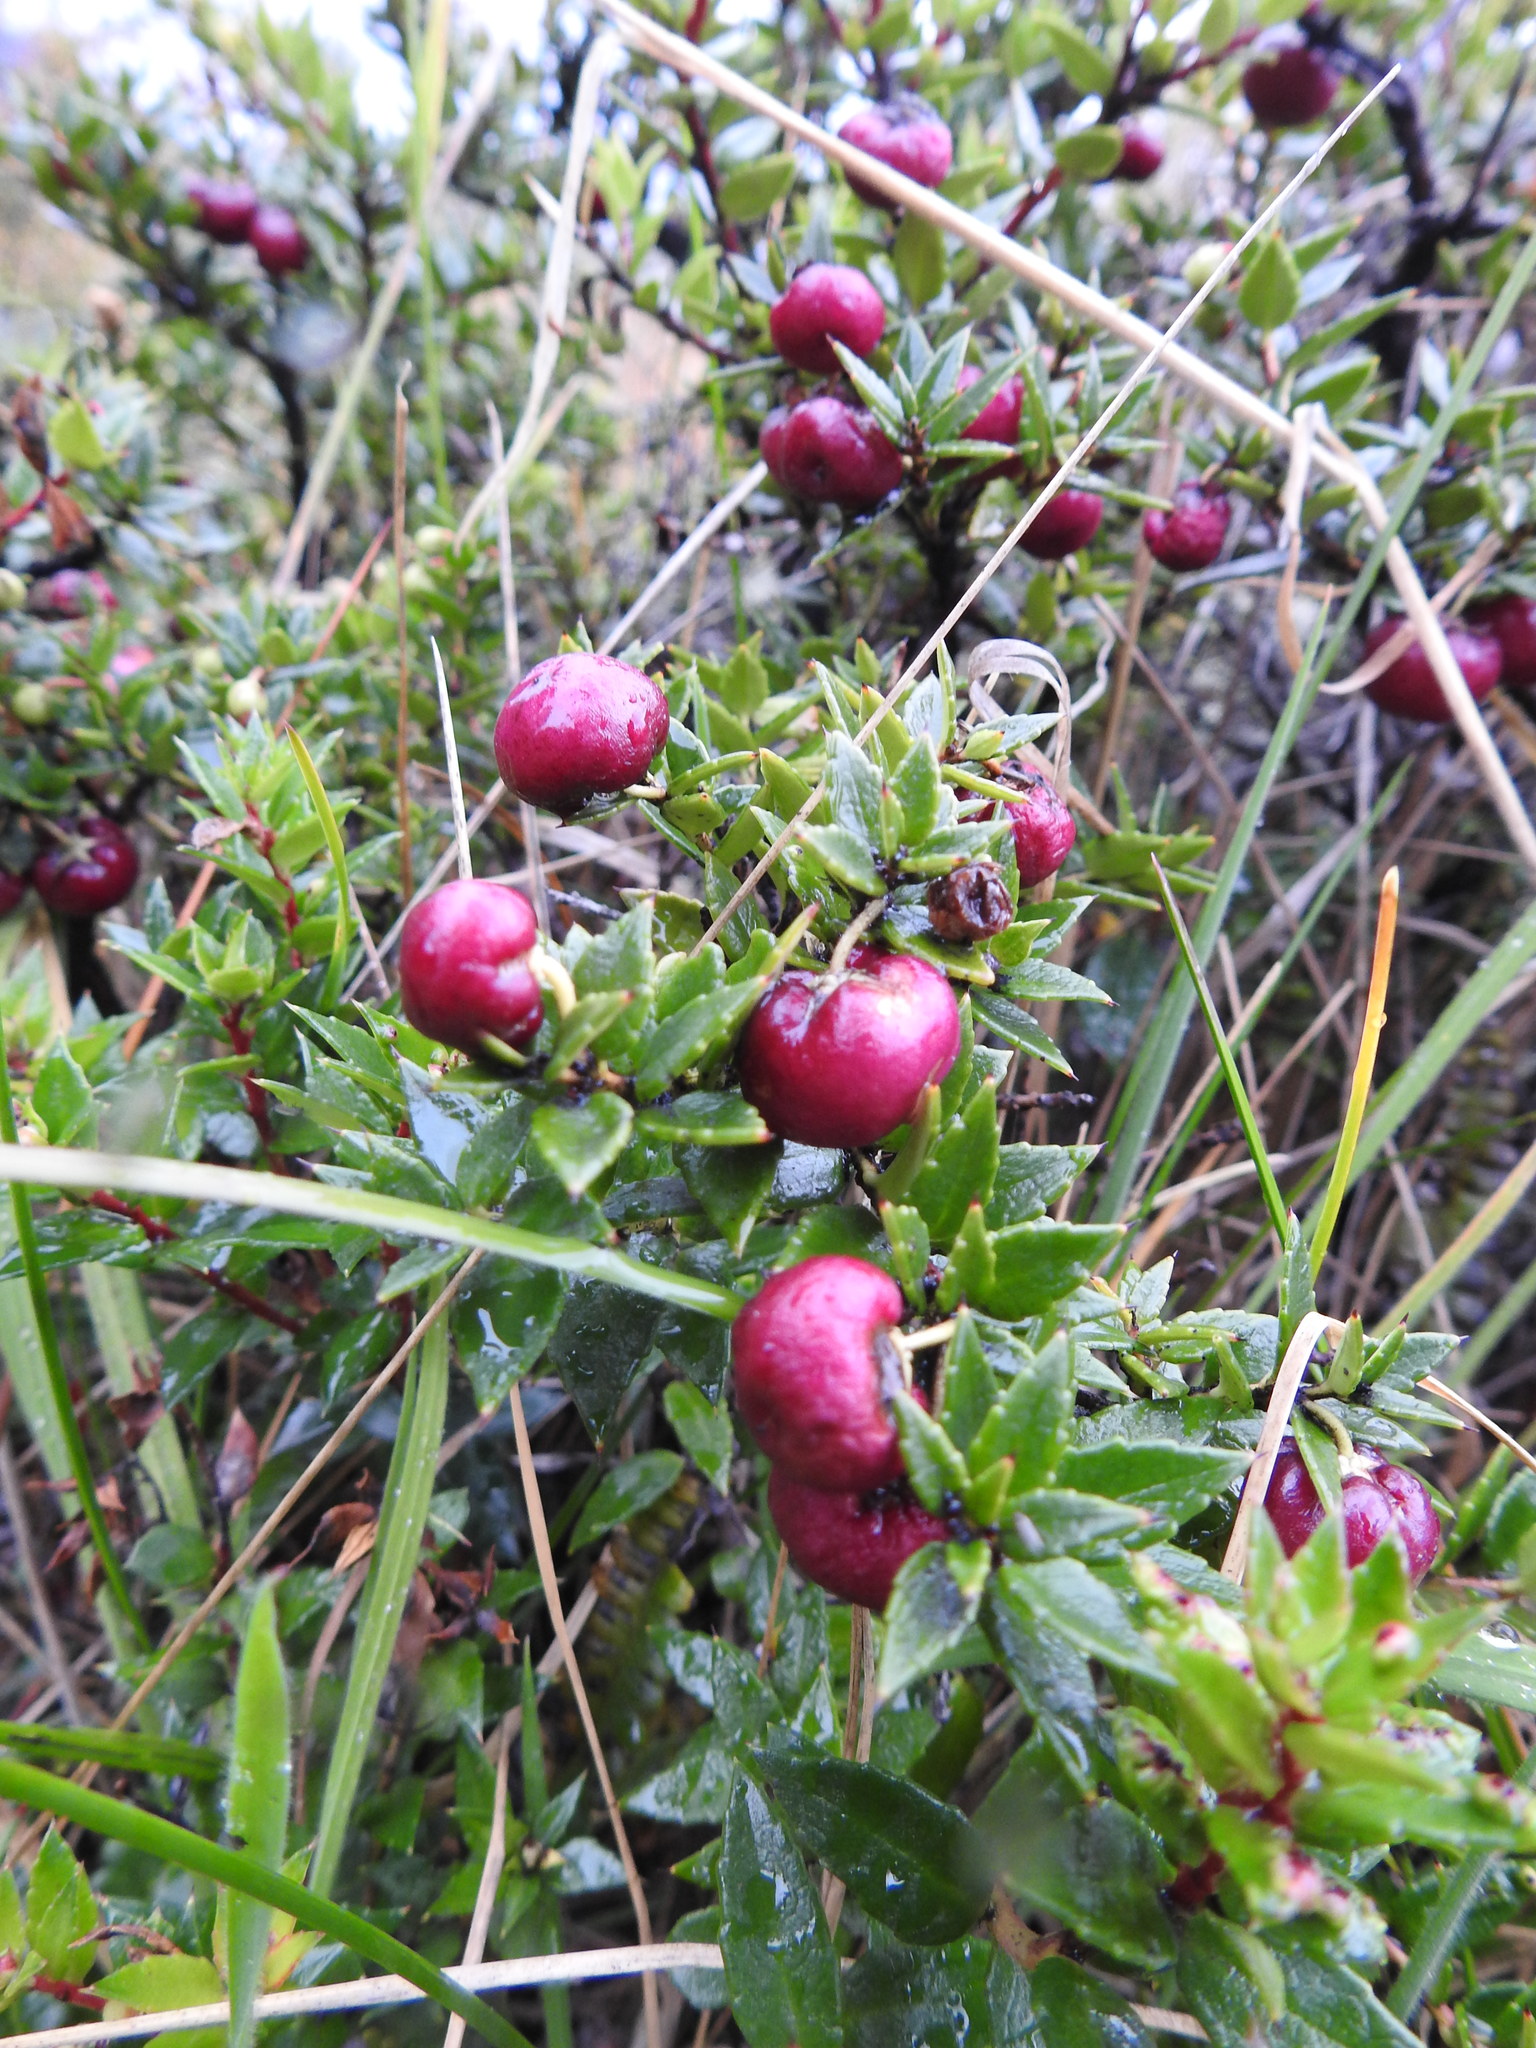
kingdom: Plantae
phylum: Tracheophyta
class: Magnoliopsida
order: Ericales
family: Ericaceae
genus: Gaultheria
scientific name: Gaultheria mucronata
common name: Prickly heath
